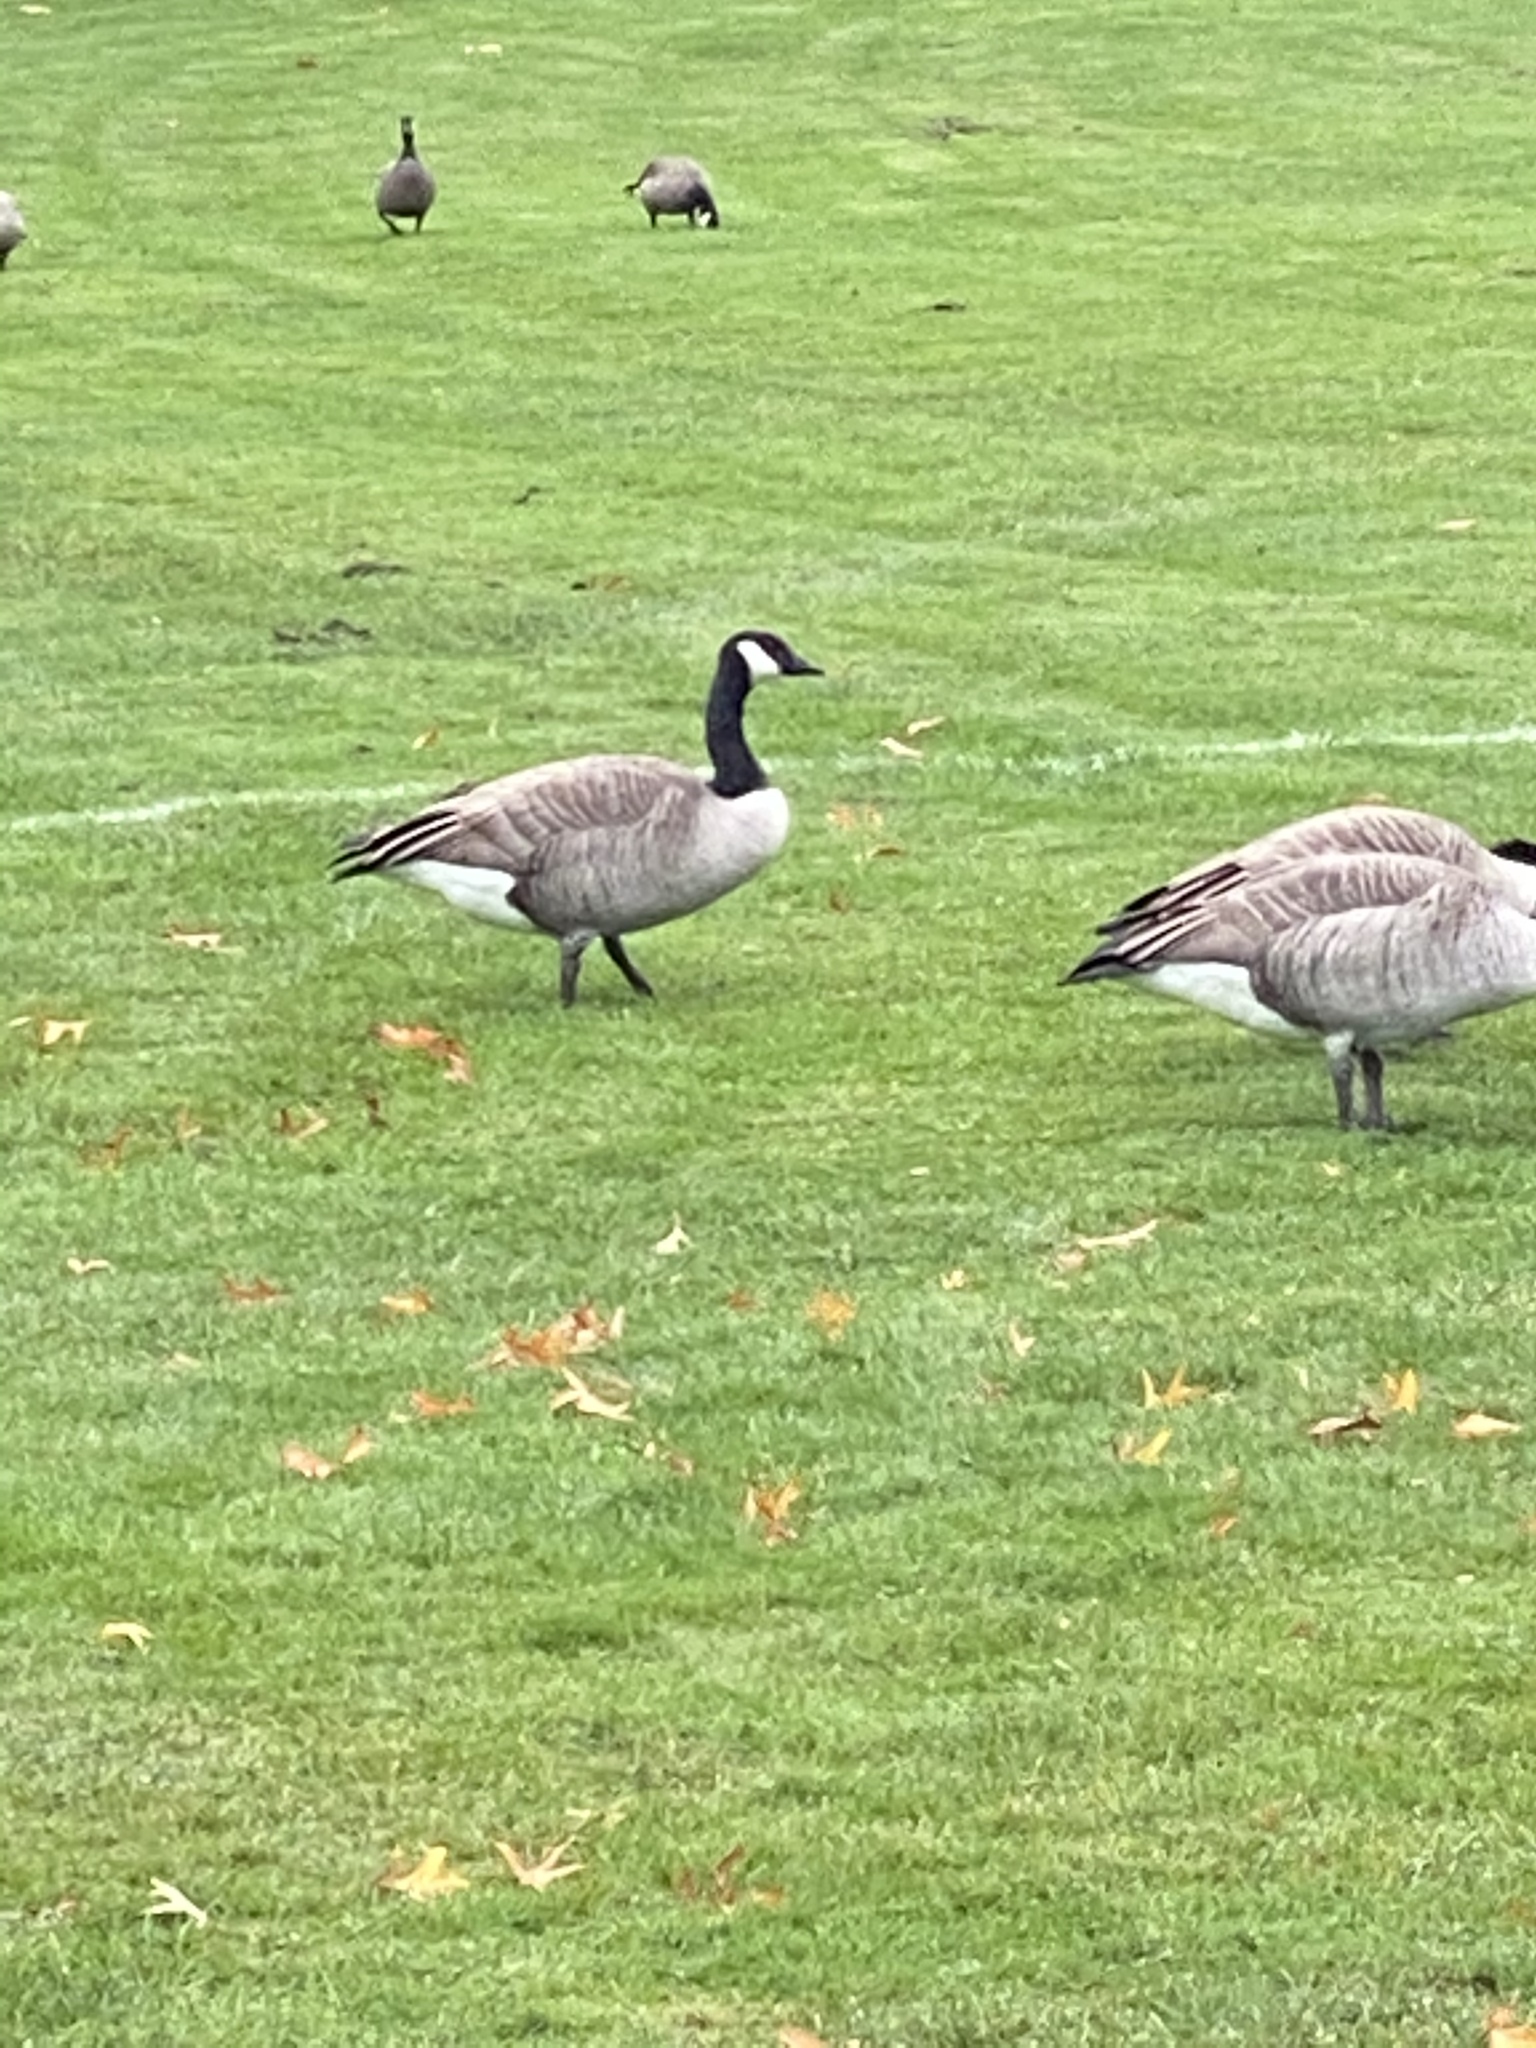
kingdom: Animalia
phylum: Chordata
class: Aves
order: Anseriformes
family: Anatidae
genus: Branta
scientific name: Branta canadensis
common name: Canada goose
